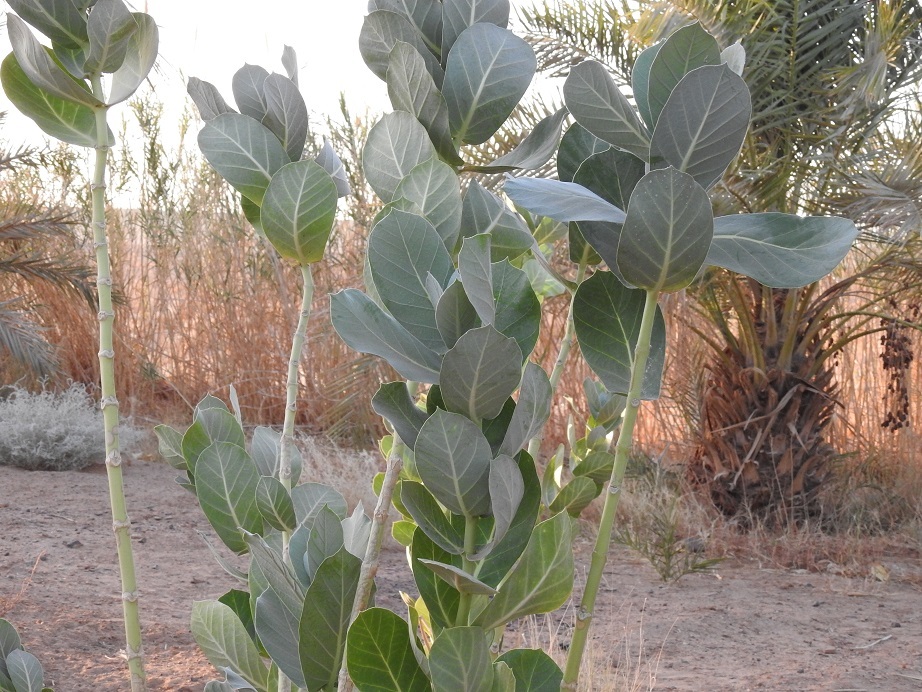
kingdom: Plantae
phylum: Tracheophyta
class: Magnoliopsida
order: Gentianales
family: Apocynaceae
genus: Calotropis
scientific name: Calotropis procera
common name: Roostertree
